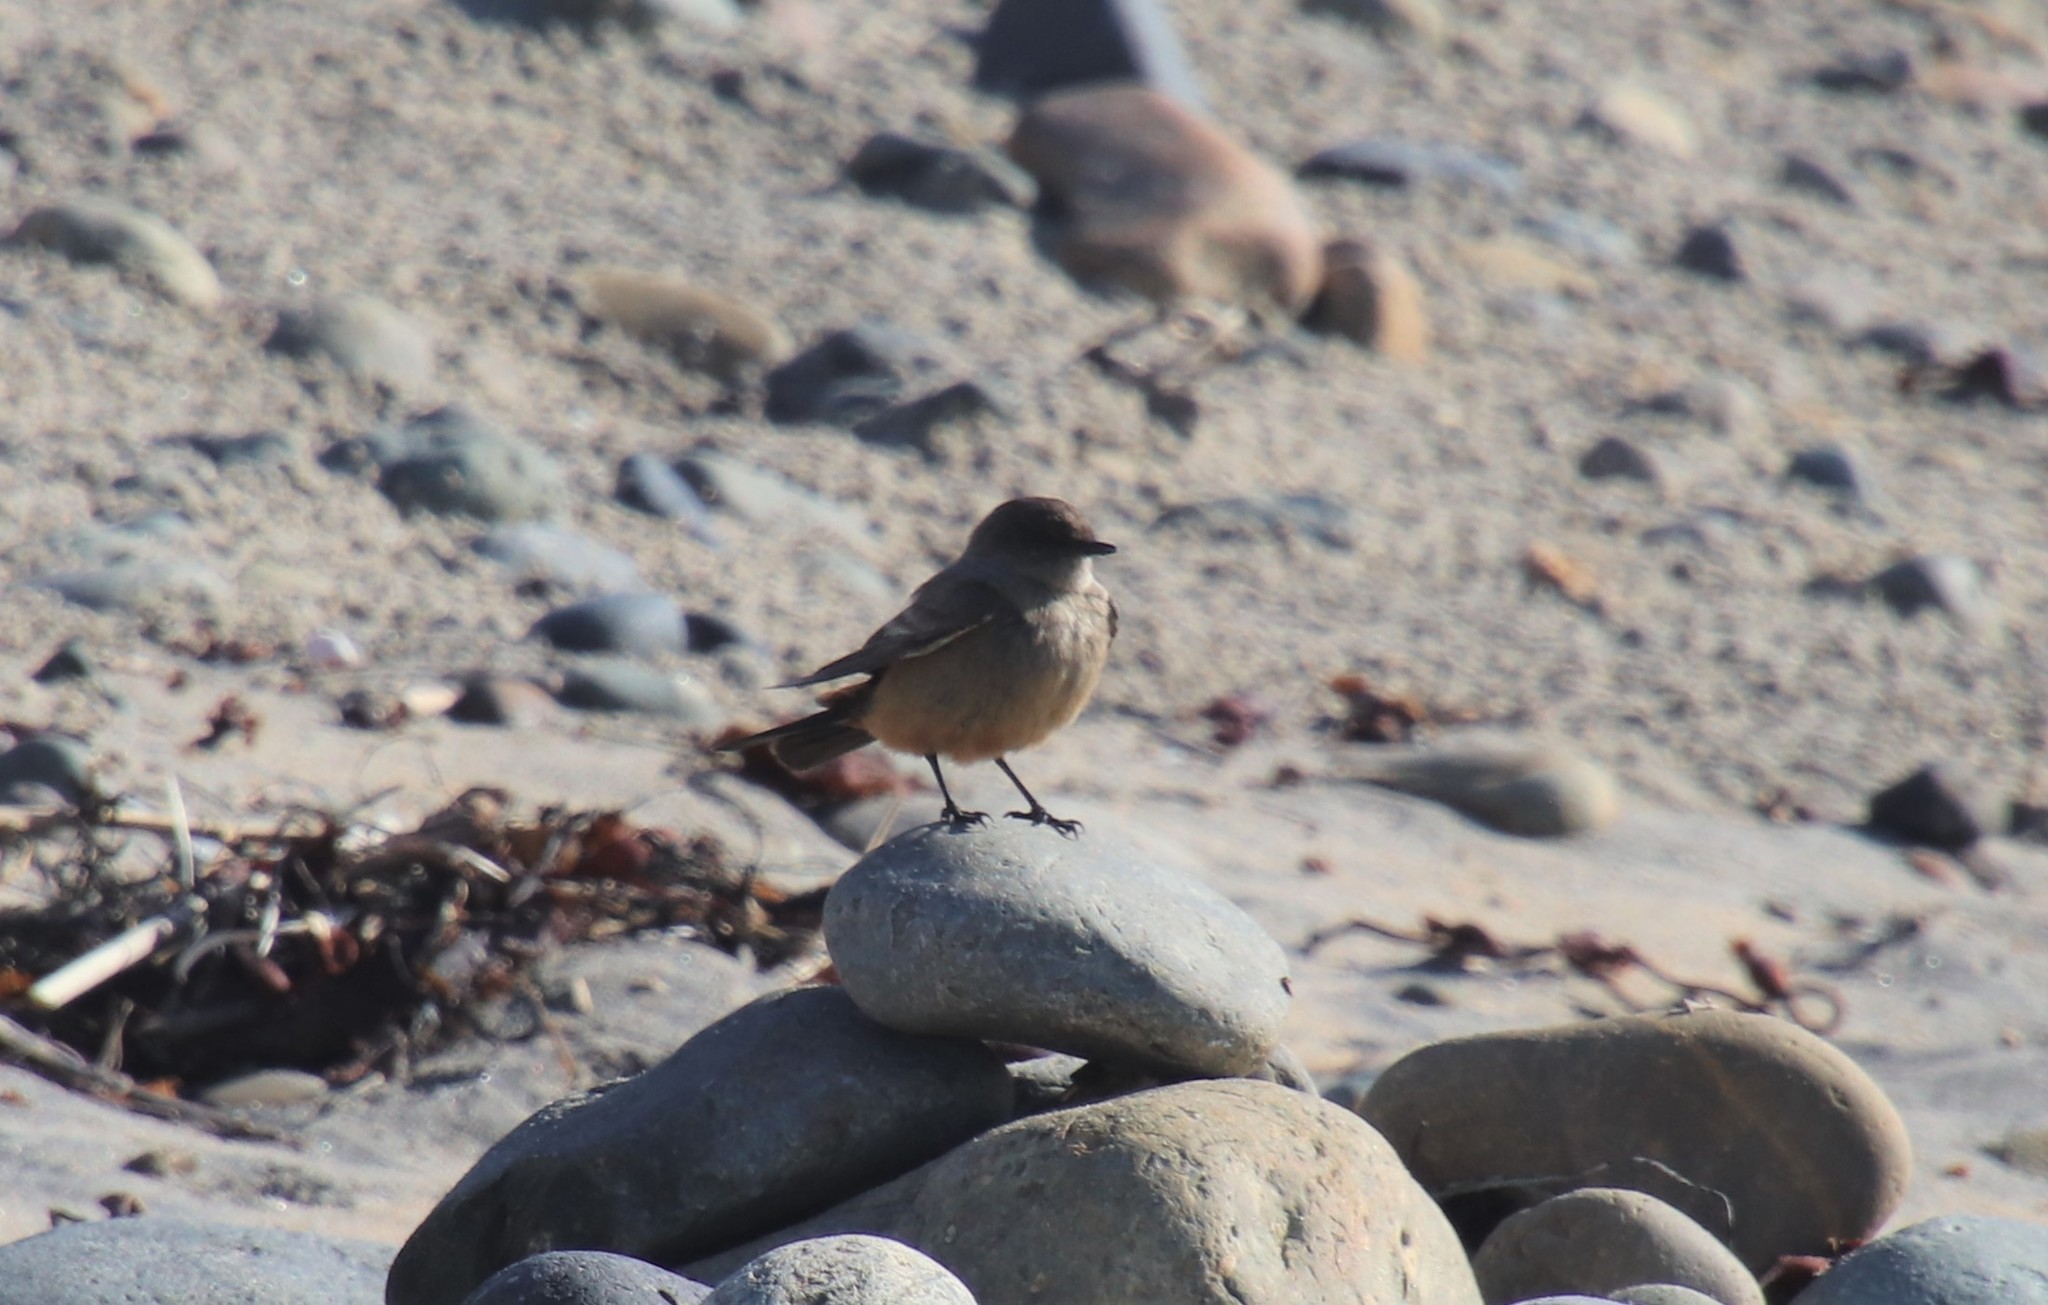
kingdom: Animalia
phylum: Chordata
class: Aves
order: Passeriformes
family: Tyrannidae
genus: Sayornis
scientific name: Sayornis saya
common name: Say's phoebe
